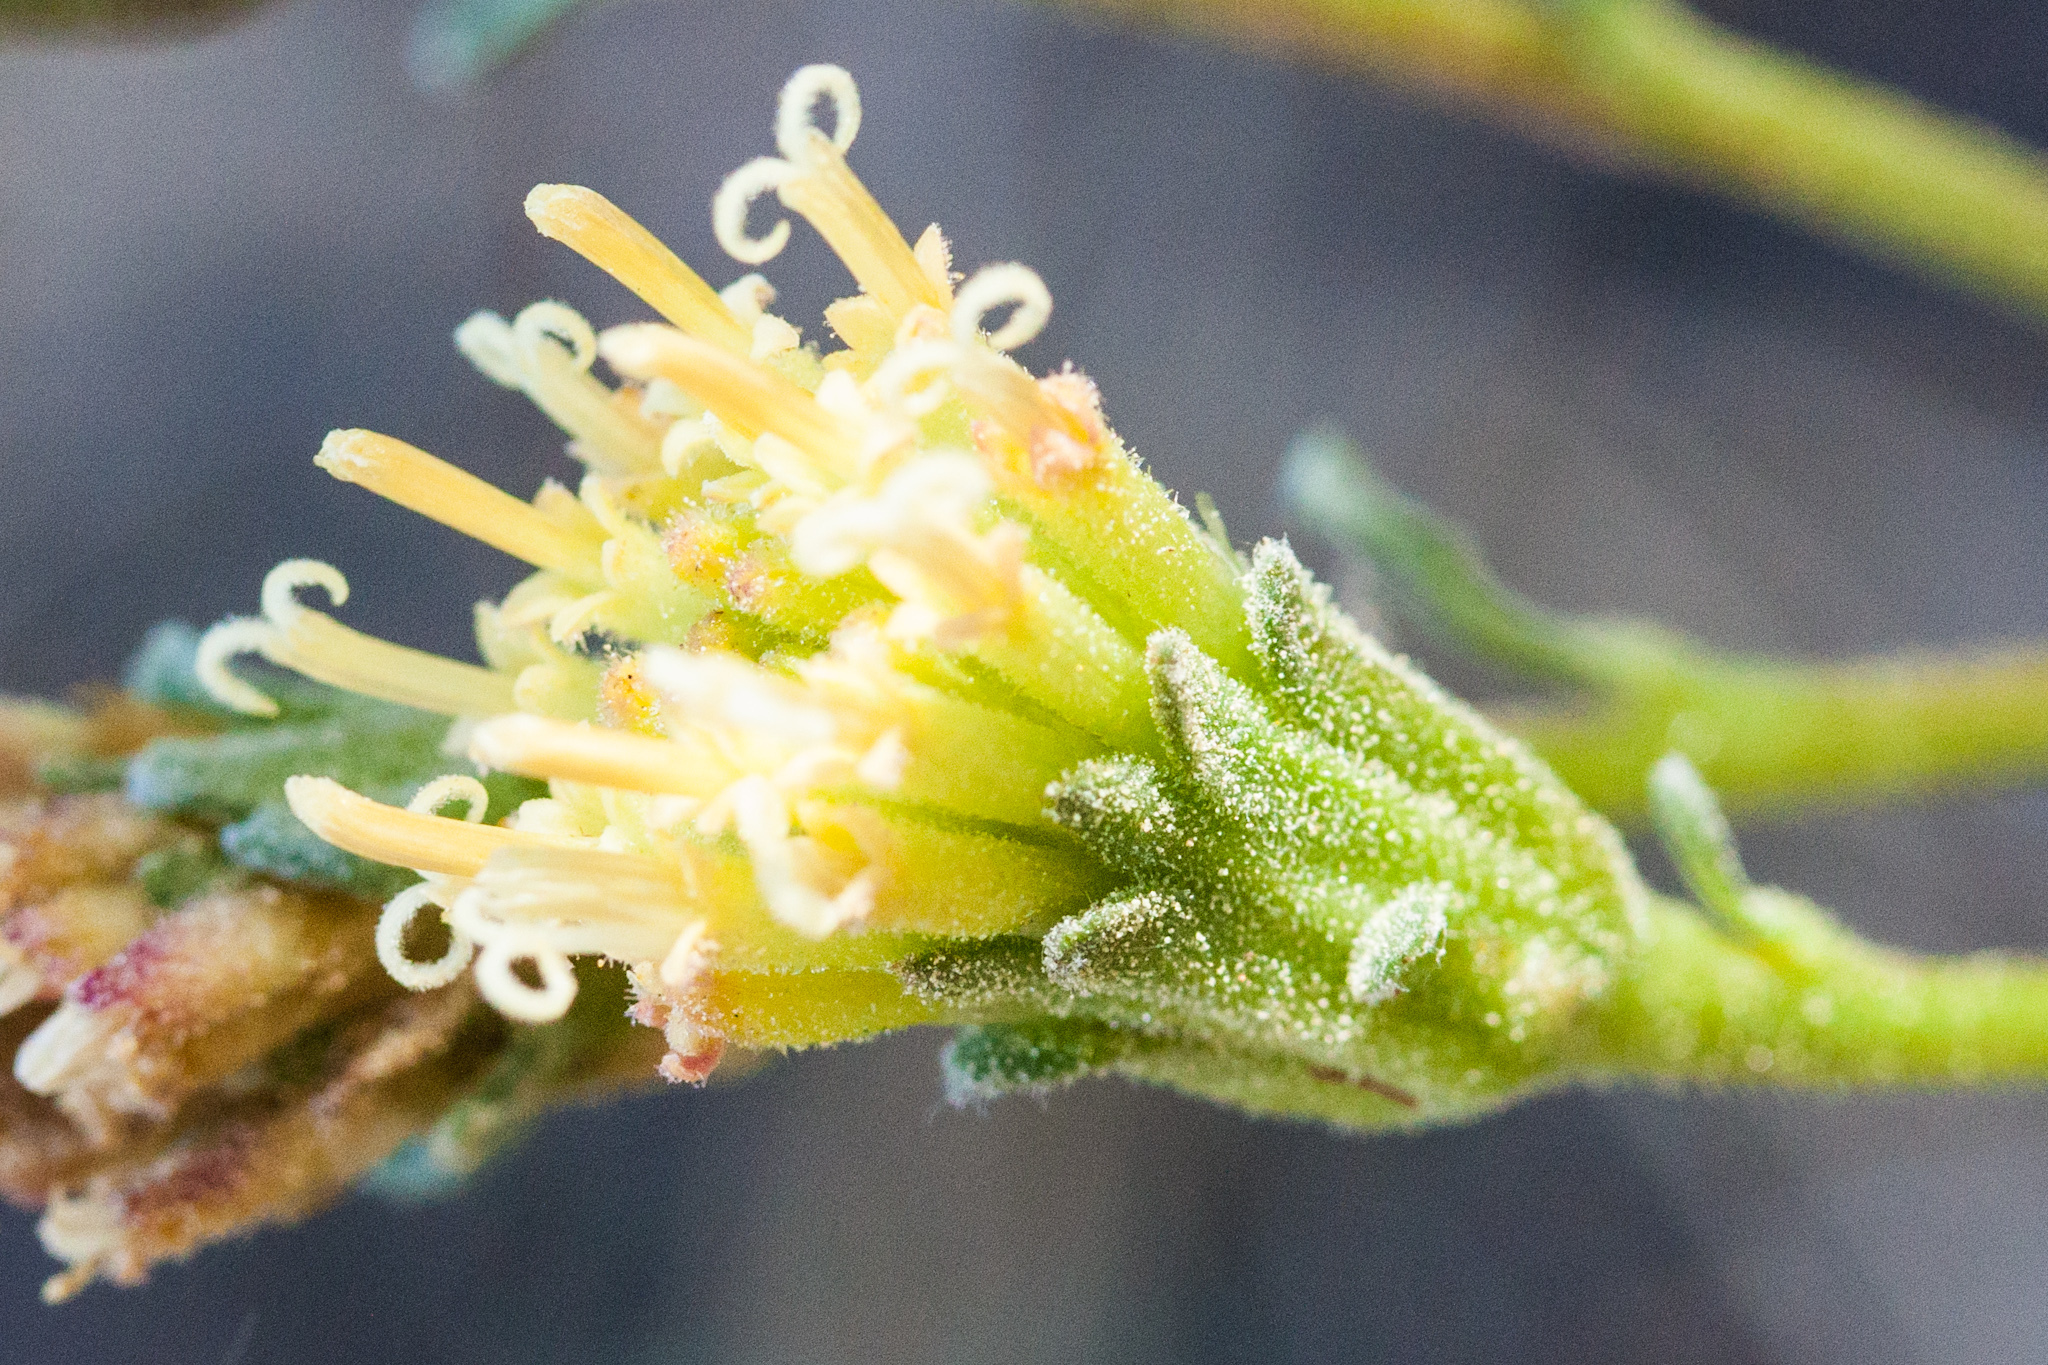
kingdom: Plantae
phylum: Tracheophyta
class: Magnoliopsida
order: Asterales
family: Asteraceae
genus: Chaenactis
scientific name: Chaenactis douglasii
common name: Hoary pincushion
